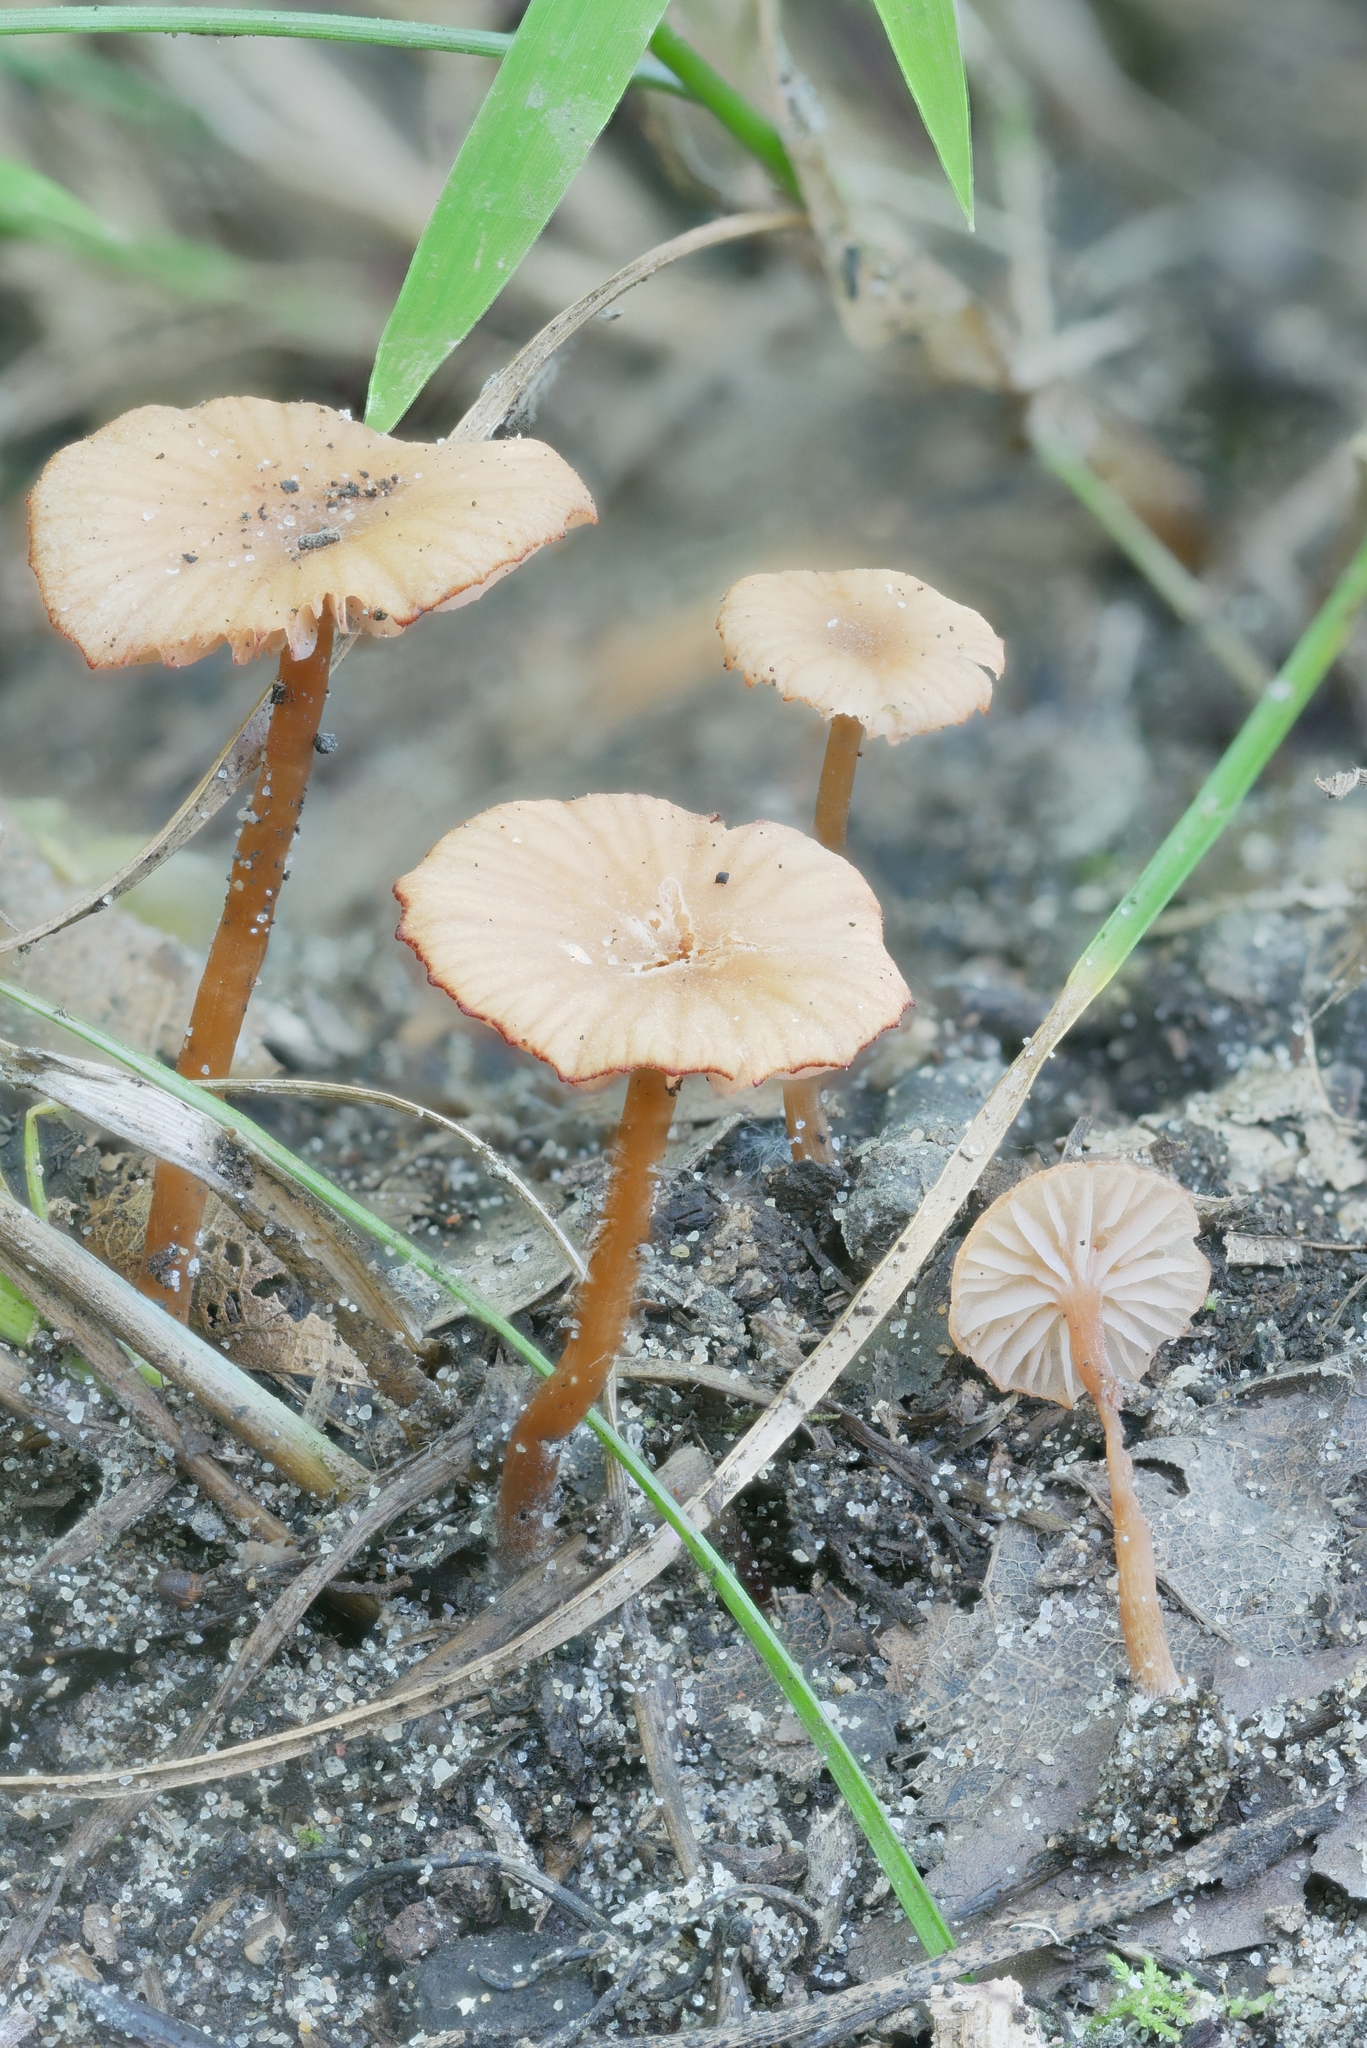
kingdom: Fungi
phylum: Basidiomycota
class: Agaricomycetes
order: Agaricales
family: Hydnangiaceae
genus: Laccaria
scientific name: Laccaria ohiensis
